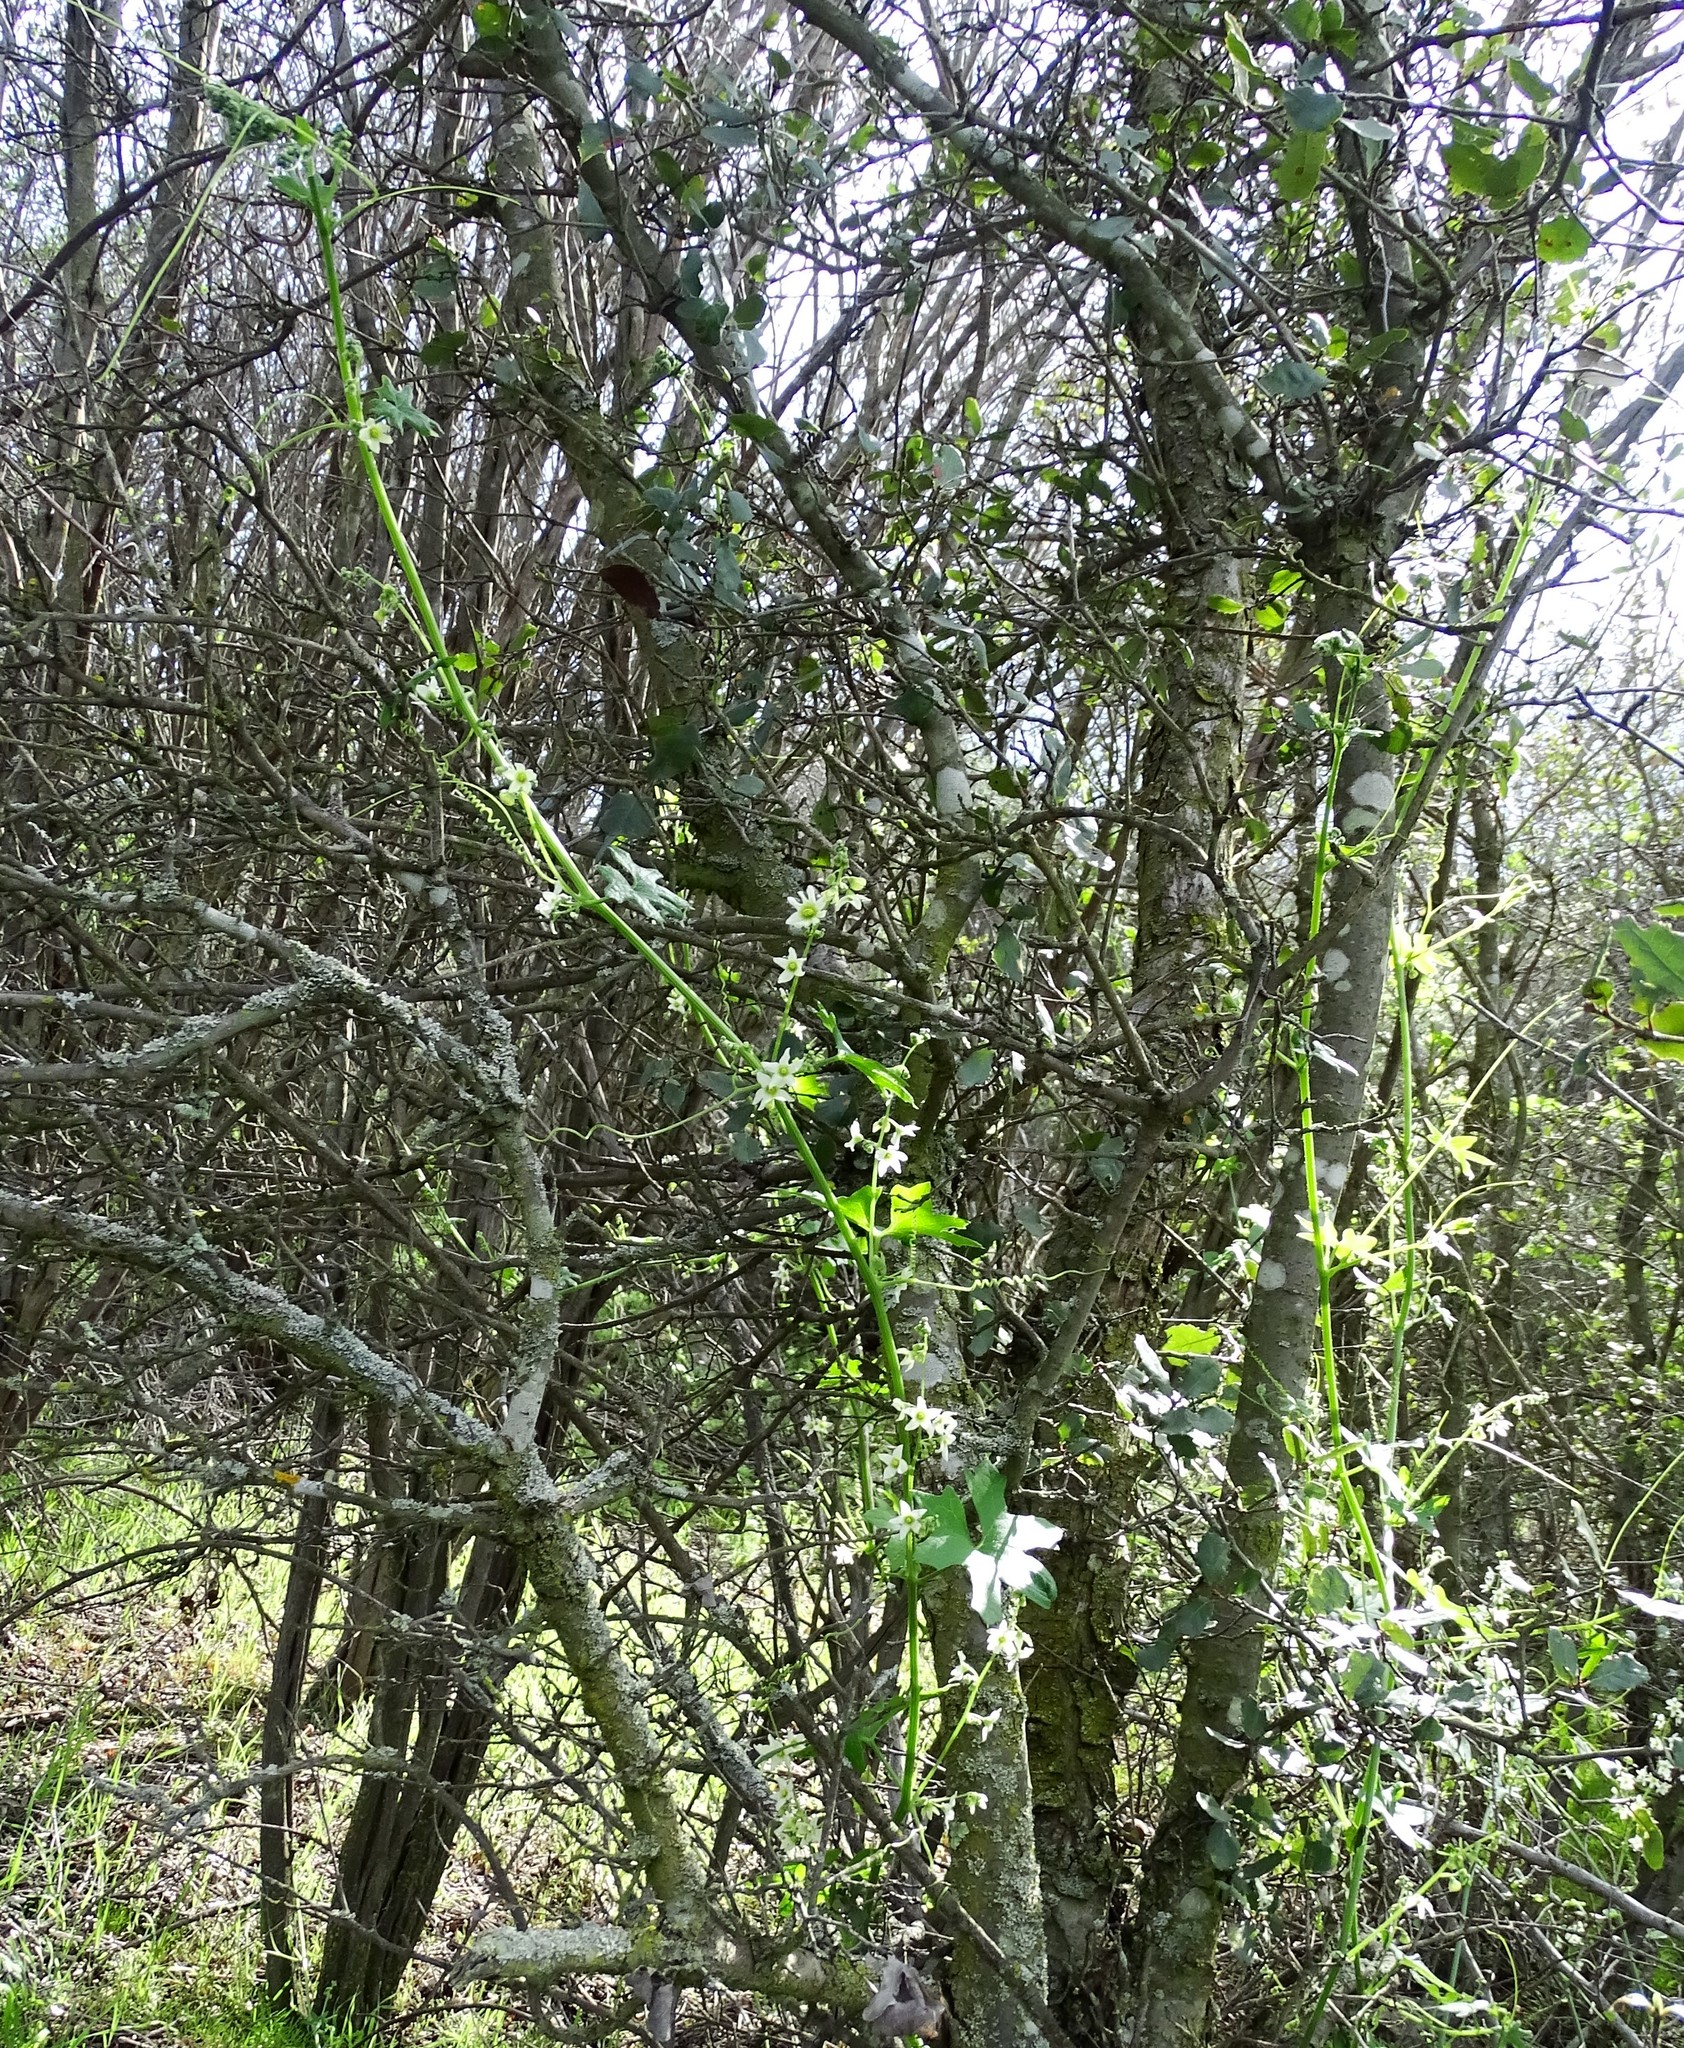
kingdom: Plantae
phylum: Tracheophyta
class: Magnoliopsida
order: Cucurbitales
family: Cucurbitaceae
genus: Marah
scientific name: Marah macrocarpa
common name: Cucamonga manroot
